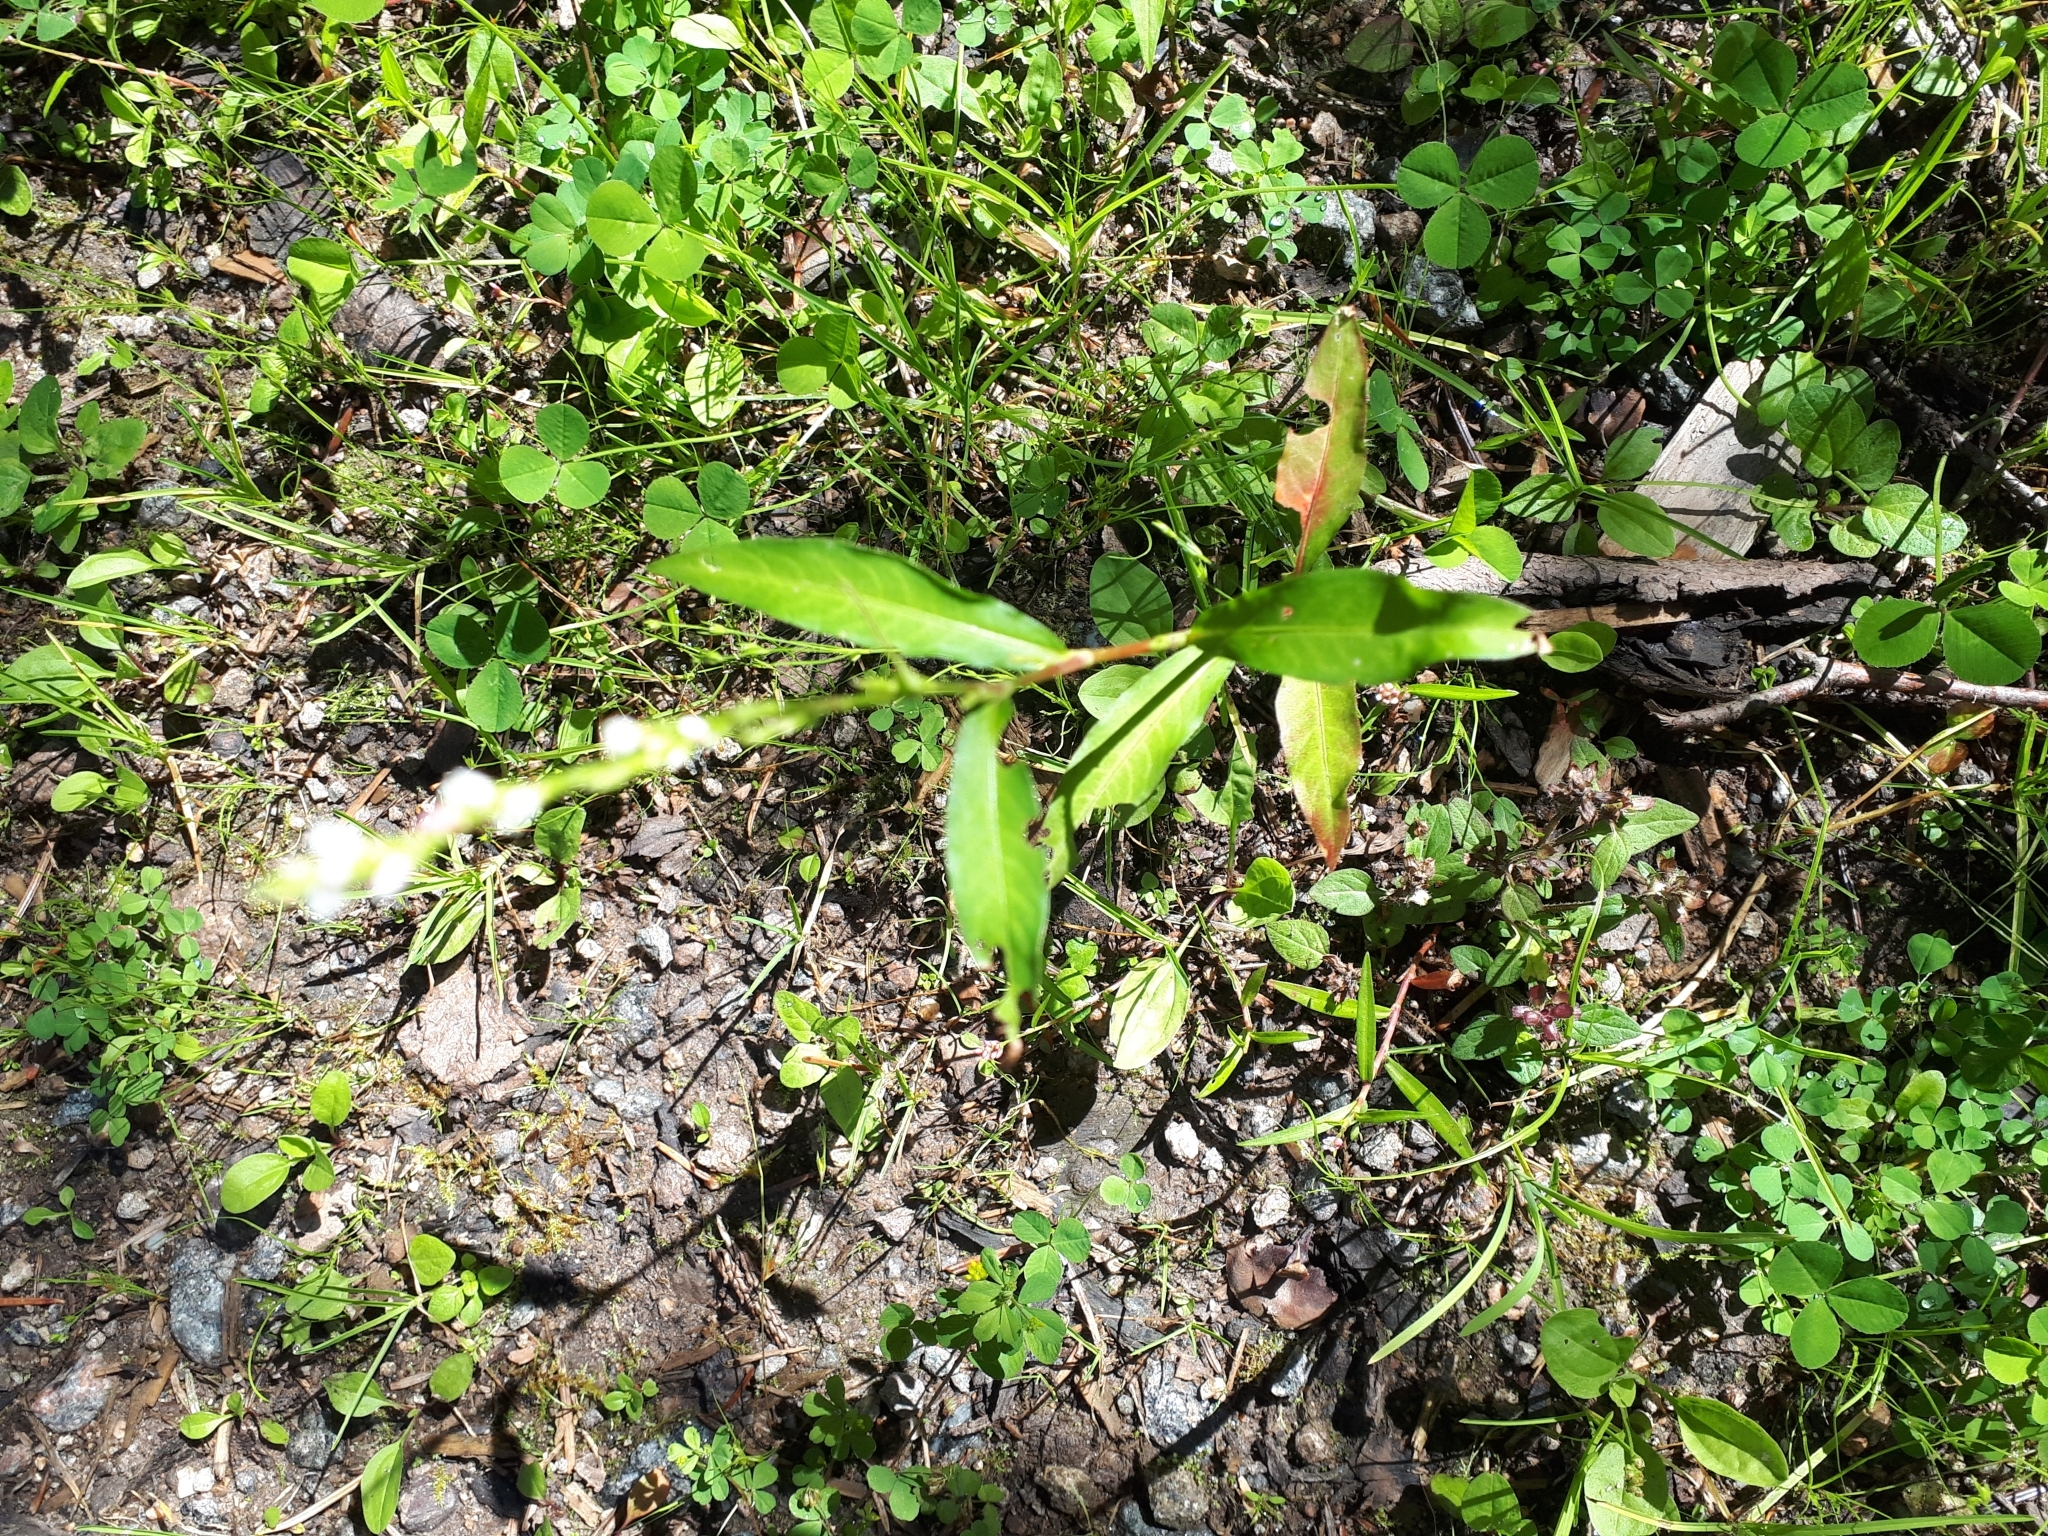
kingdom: Plantae
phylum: Tracheophyta
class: Magnoliopsida
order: Caryophyllales
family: Polygonaceae
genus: Persicaria
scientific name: Persicaria hydropiper
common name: Water-pepper
